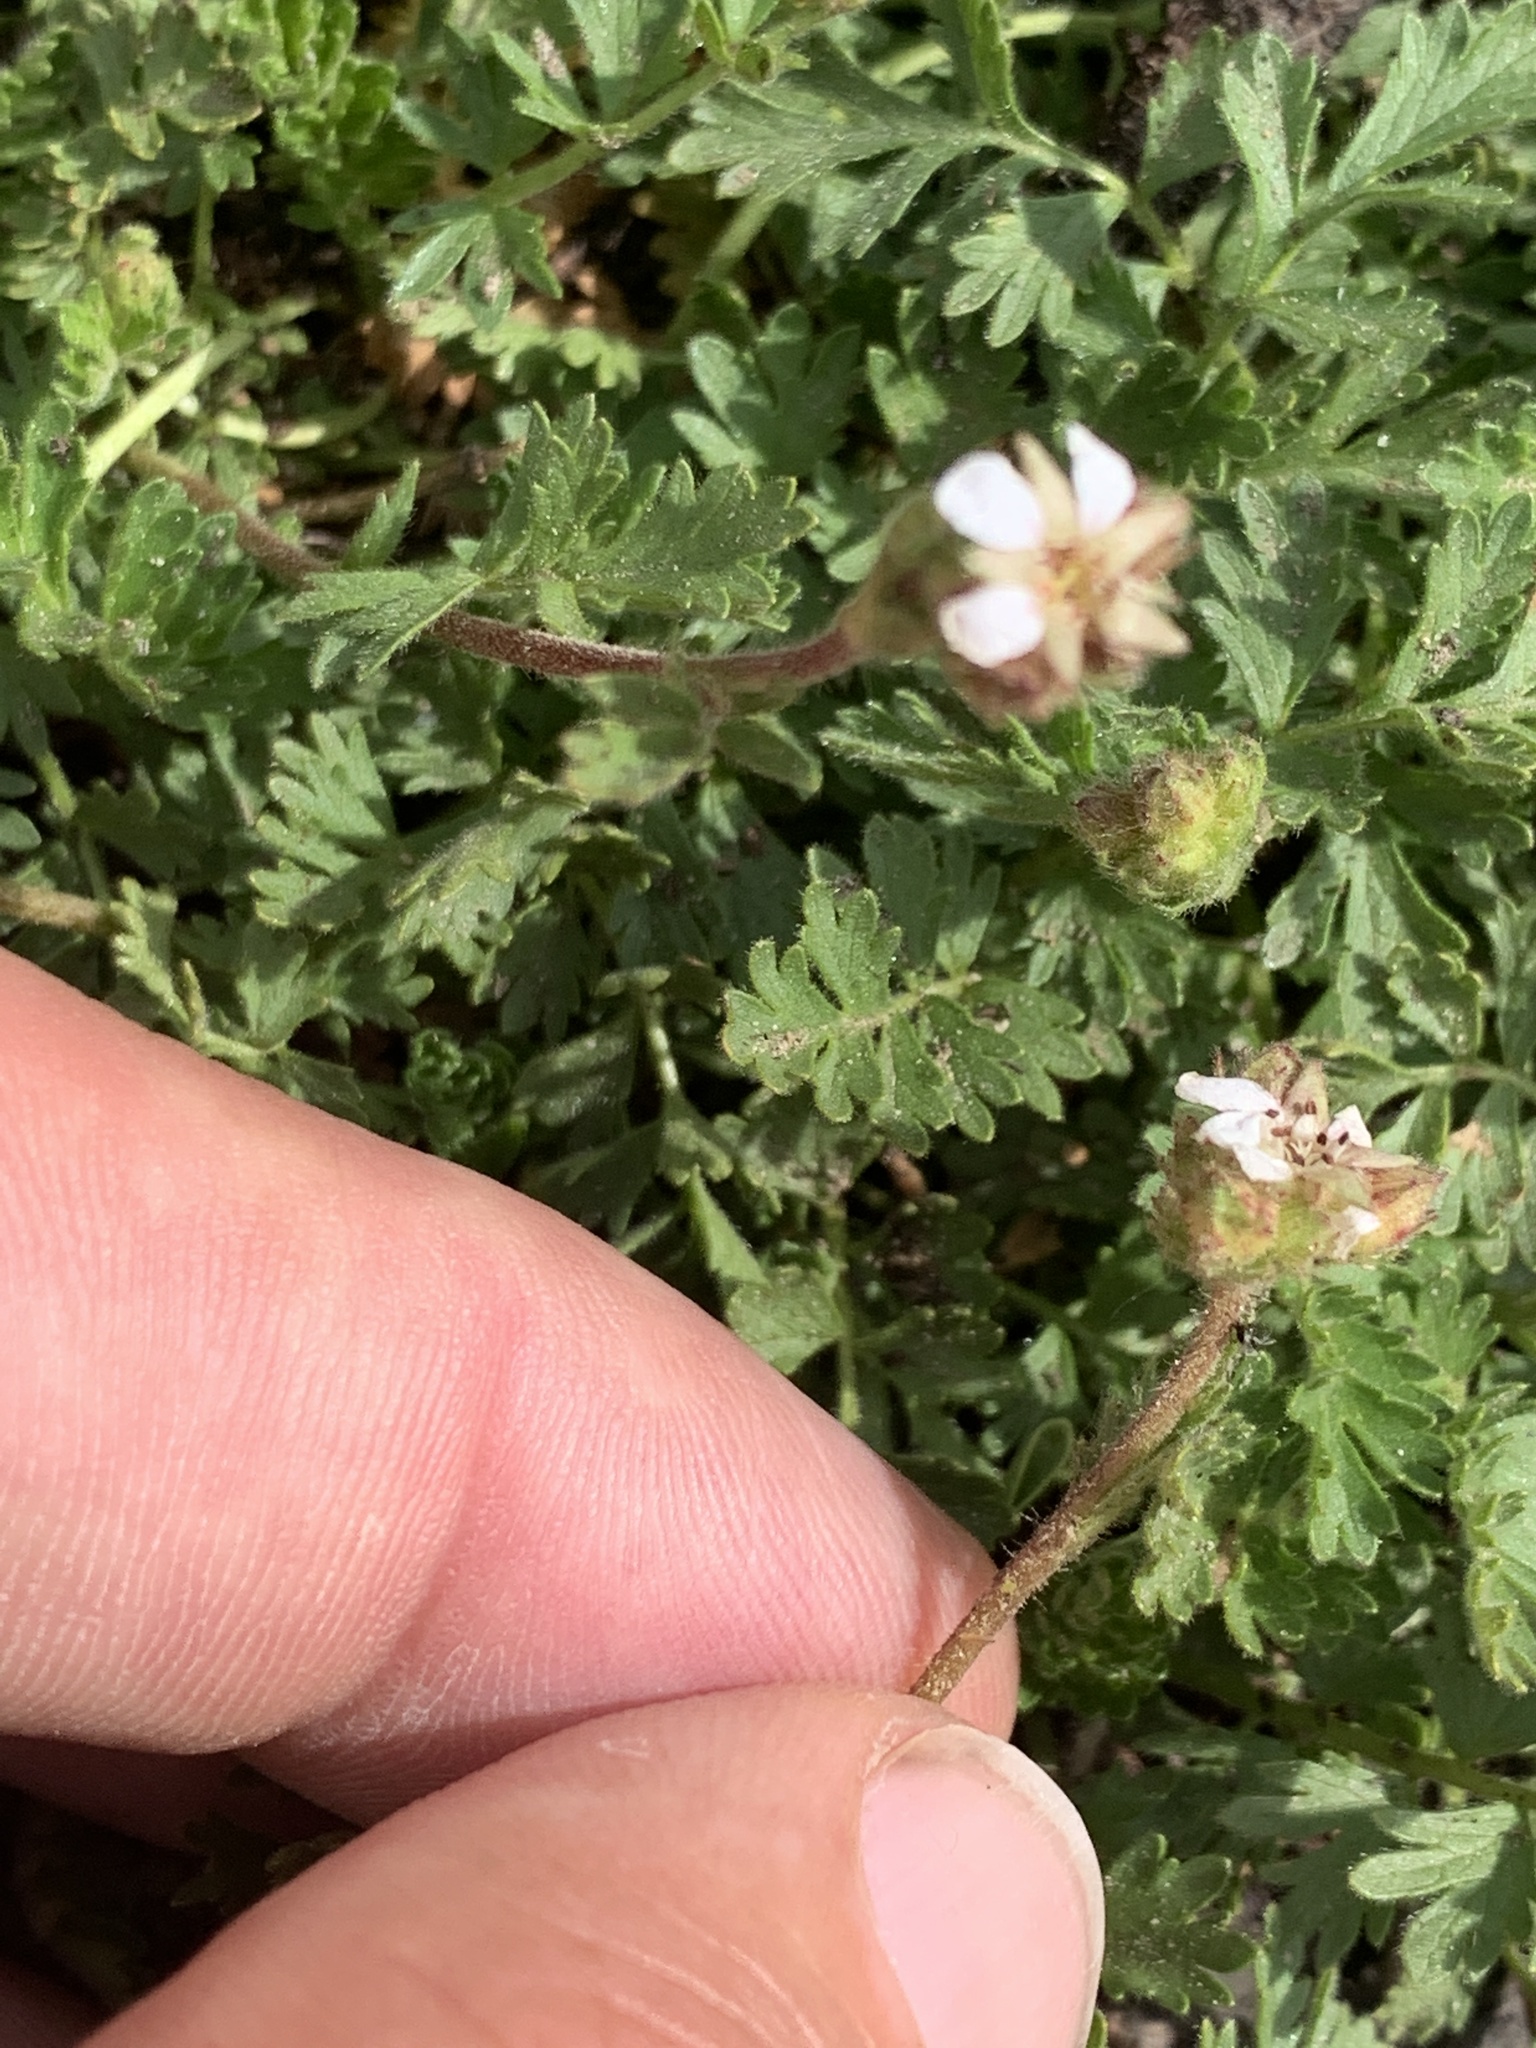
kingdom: Plantae
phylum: Tracheophyta
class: Magnoliopsida
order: Rosales
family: Rosaceae
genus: Potentilla
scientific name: Potentilla douglasii
